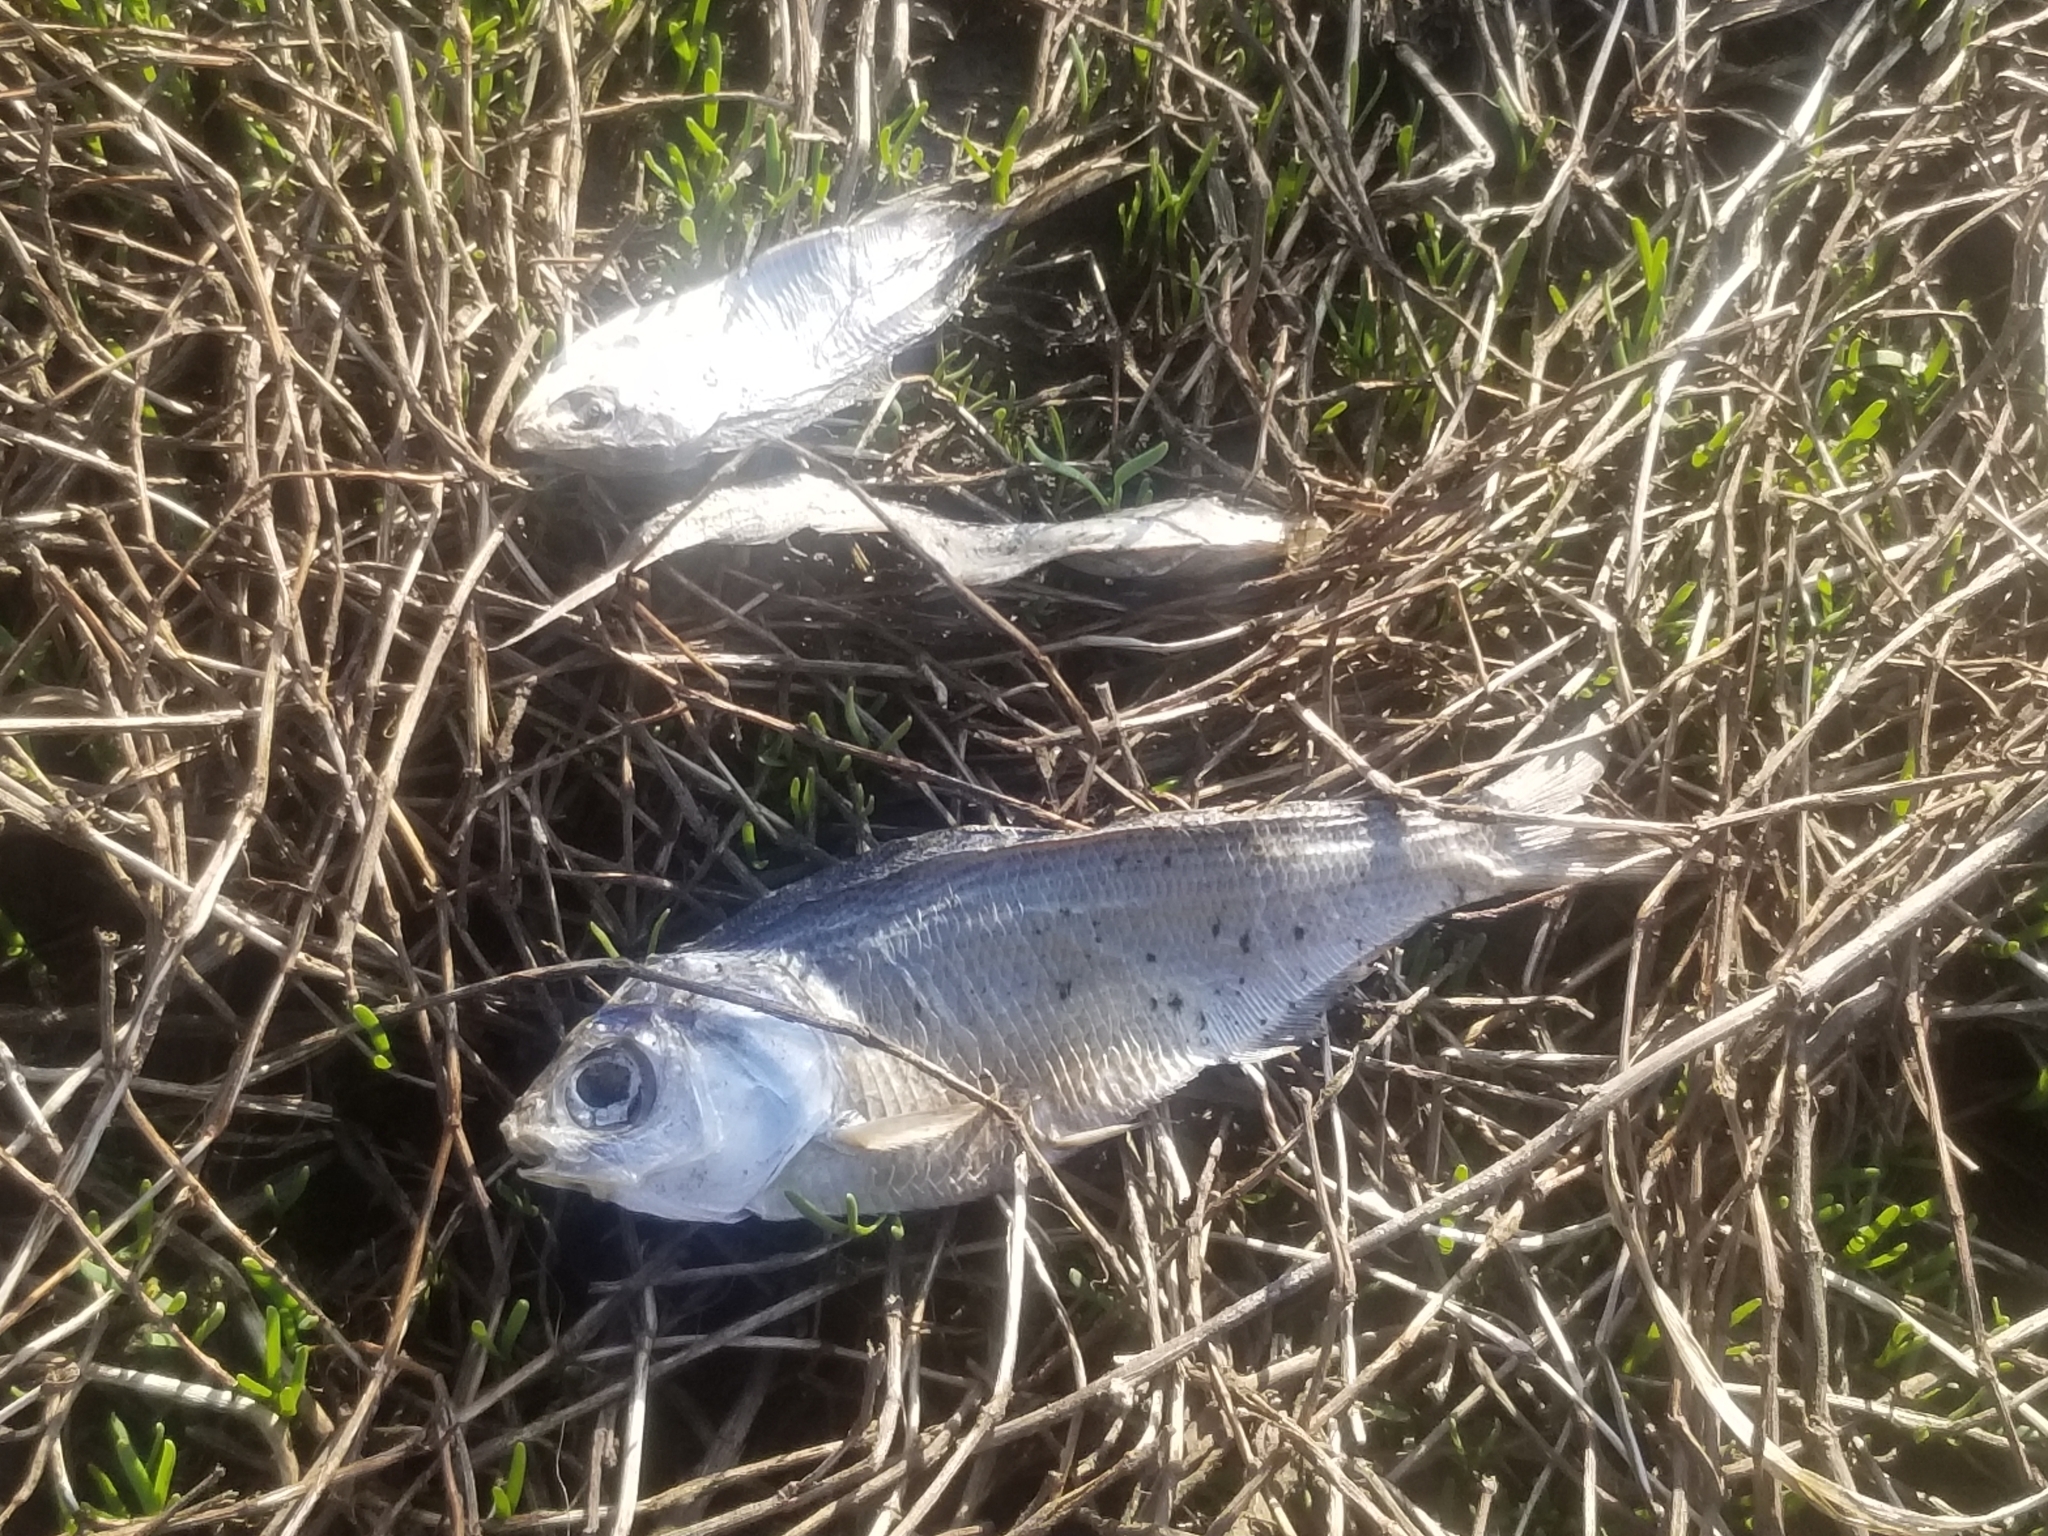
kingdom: Animalia
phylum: Chordata
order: Clupeiformes
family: Clupeidae
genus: Dorosoma
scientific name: Dorosoma cepedianum
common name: Gizzard shad
